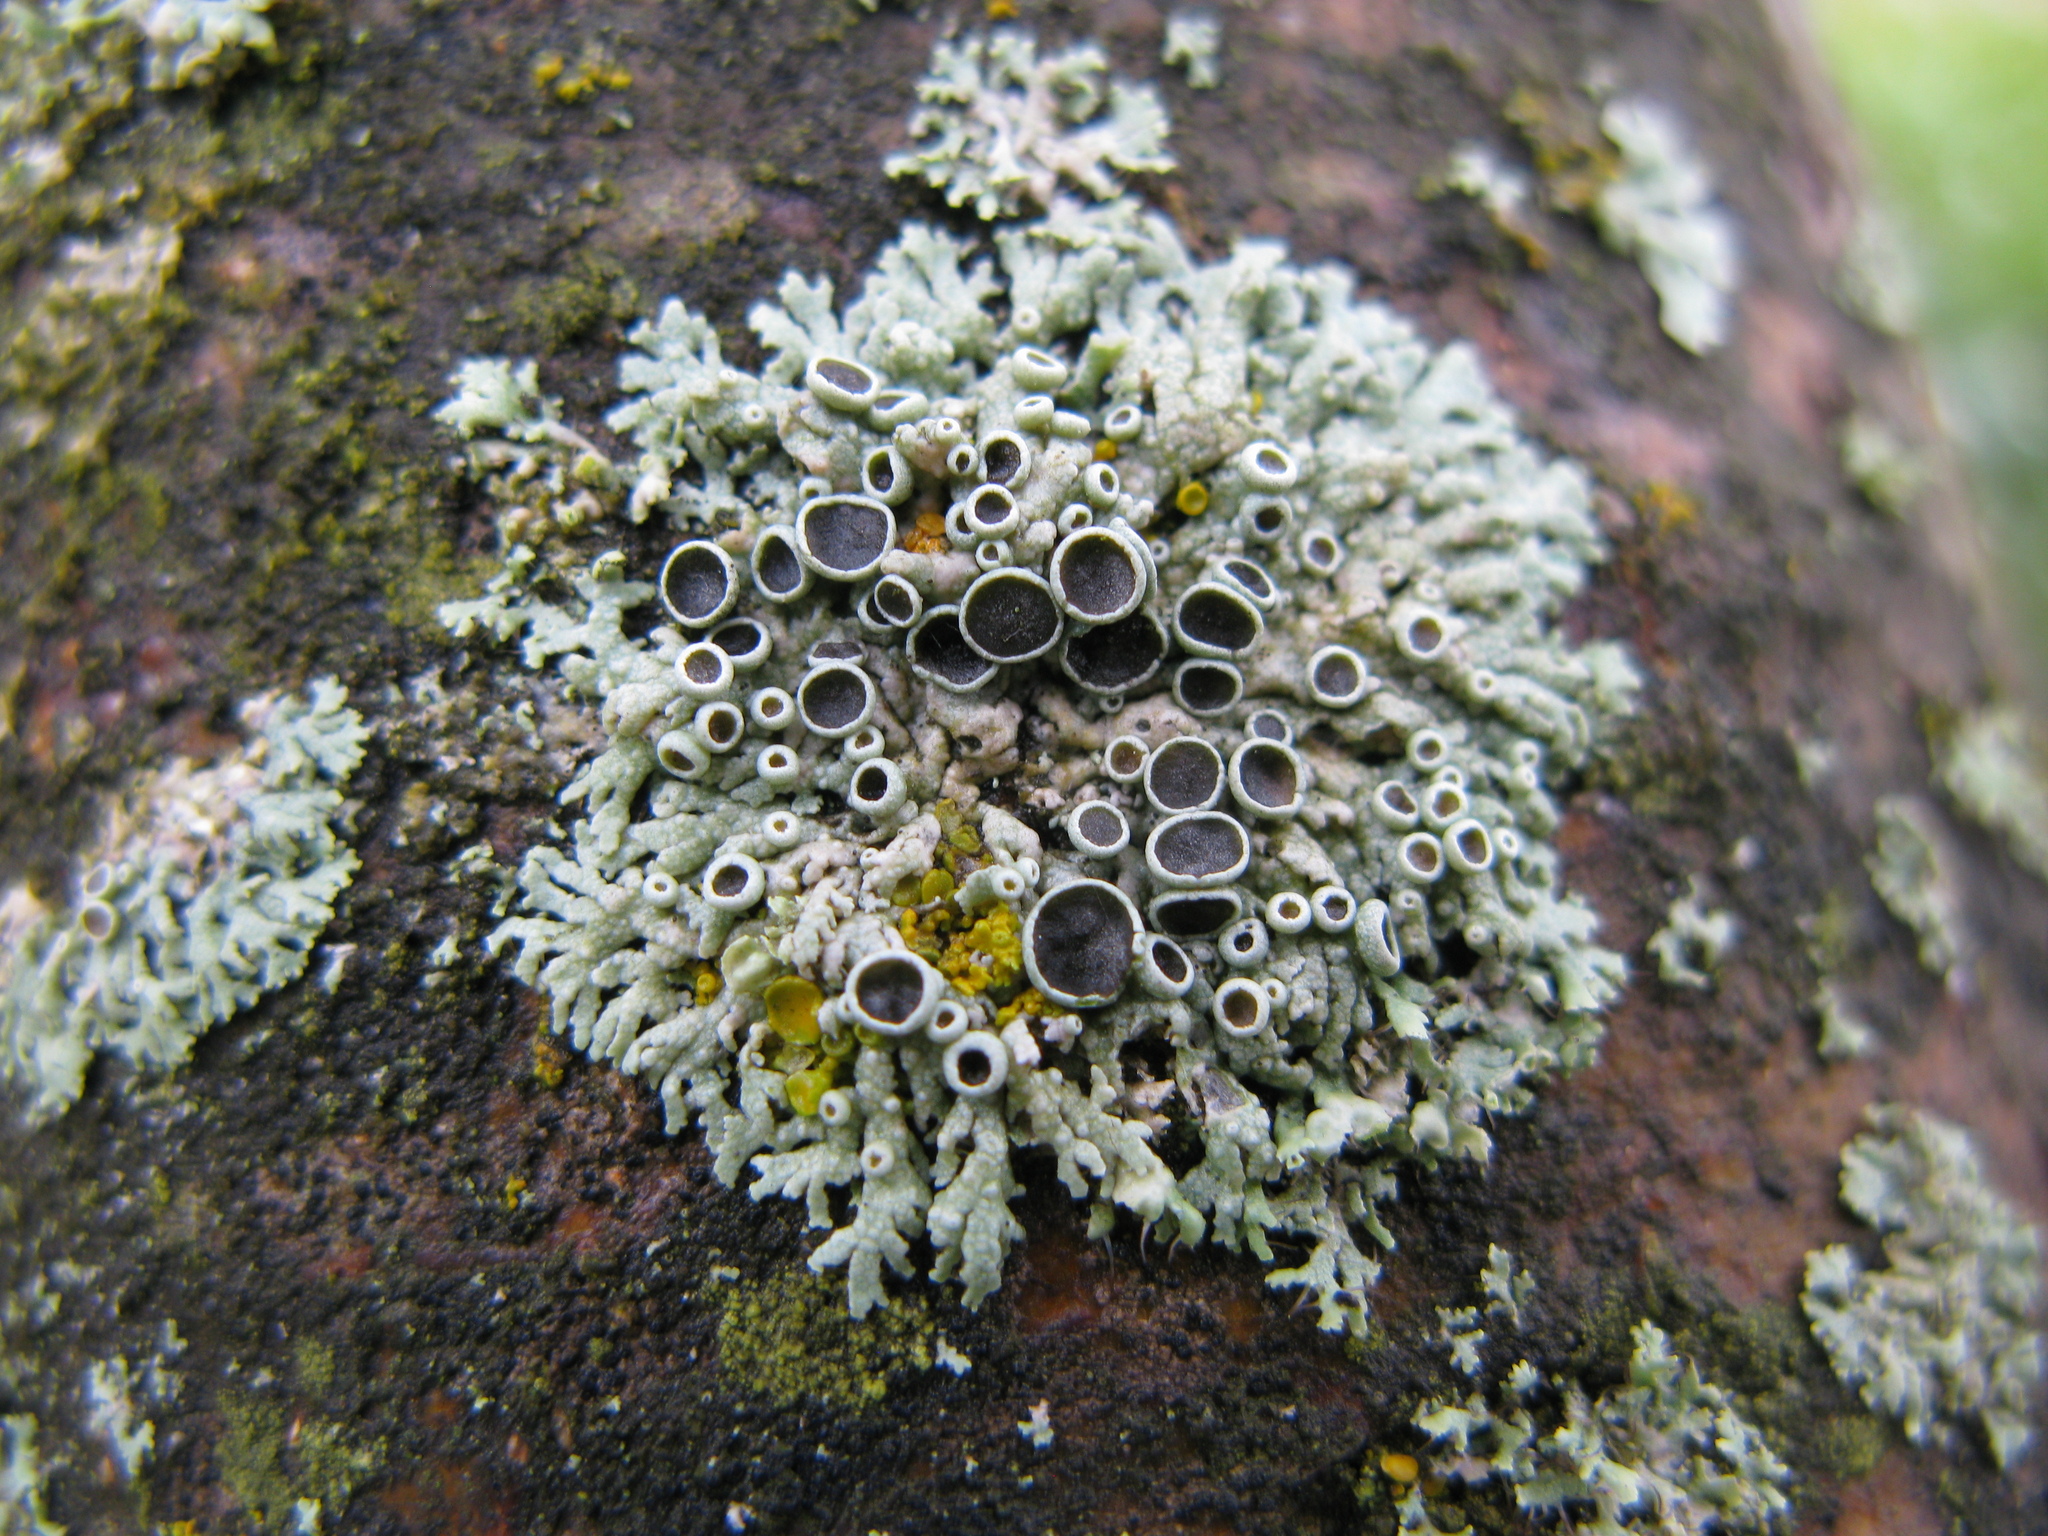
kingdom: Fungi
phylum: Ascomycota
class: Lecanoromycetes
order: Caliciales
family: Physciaceae
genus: Physcia
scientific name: Physcia stellaris
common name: Star rosette lichen
